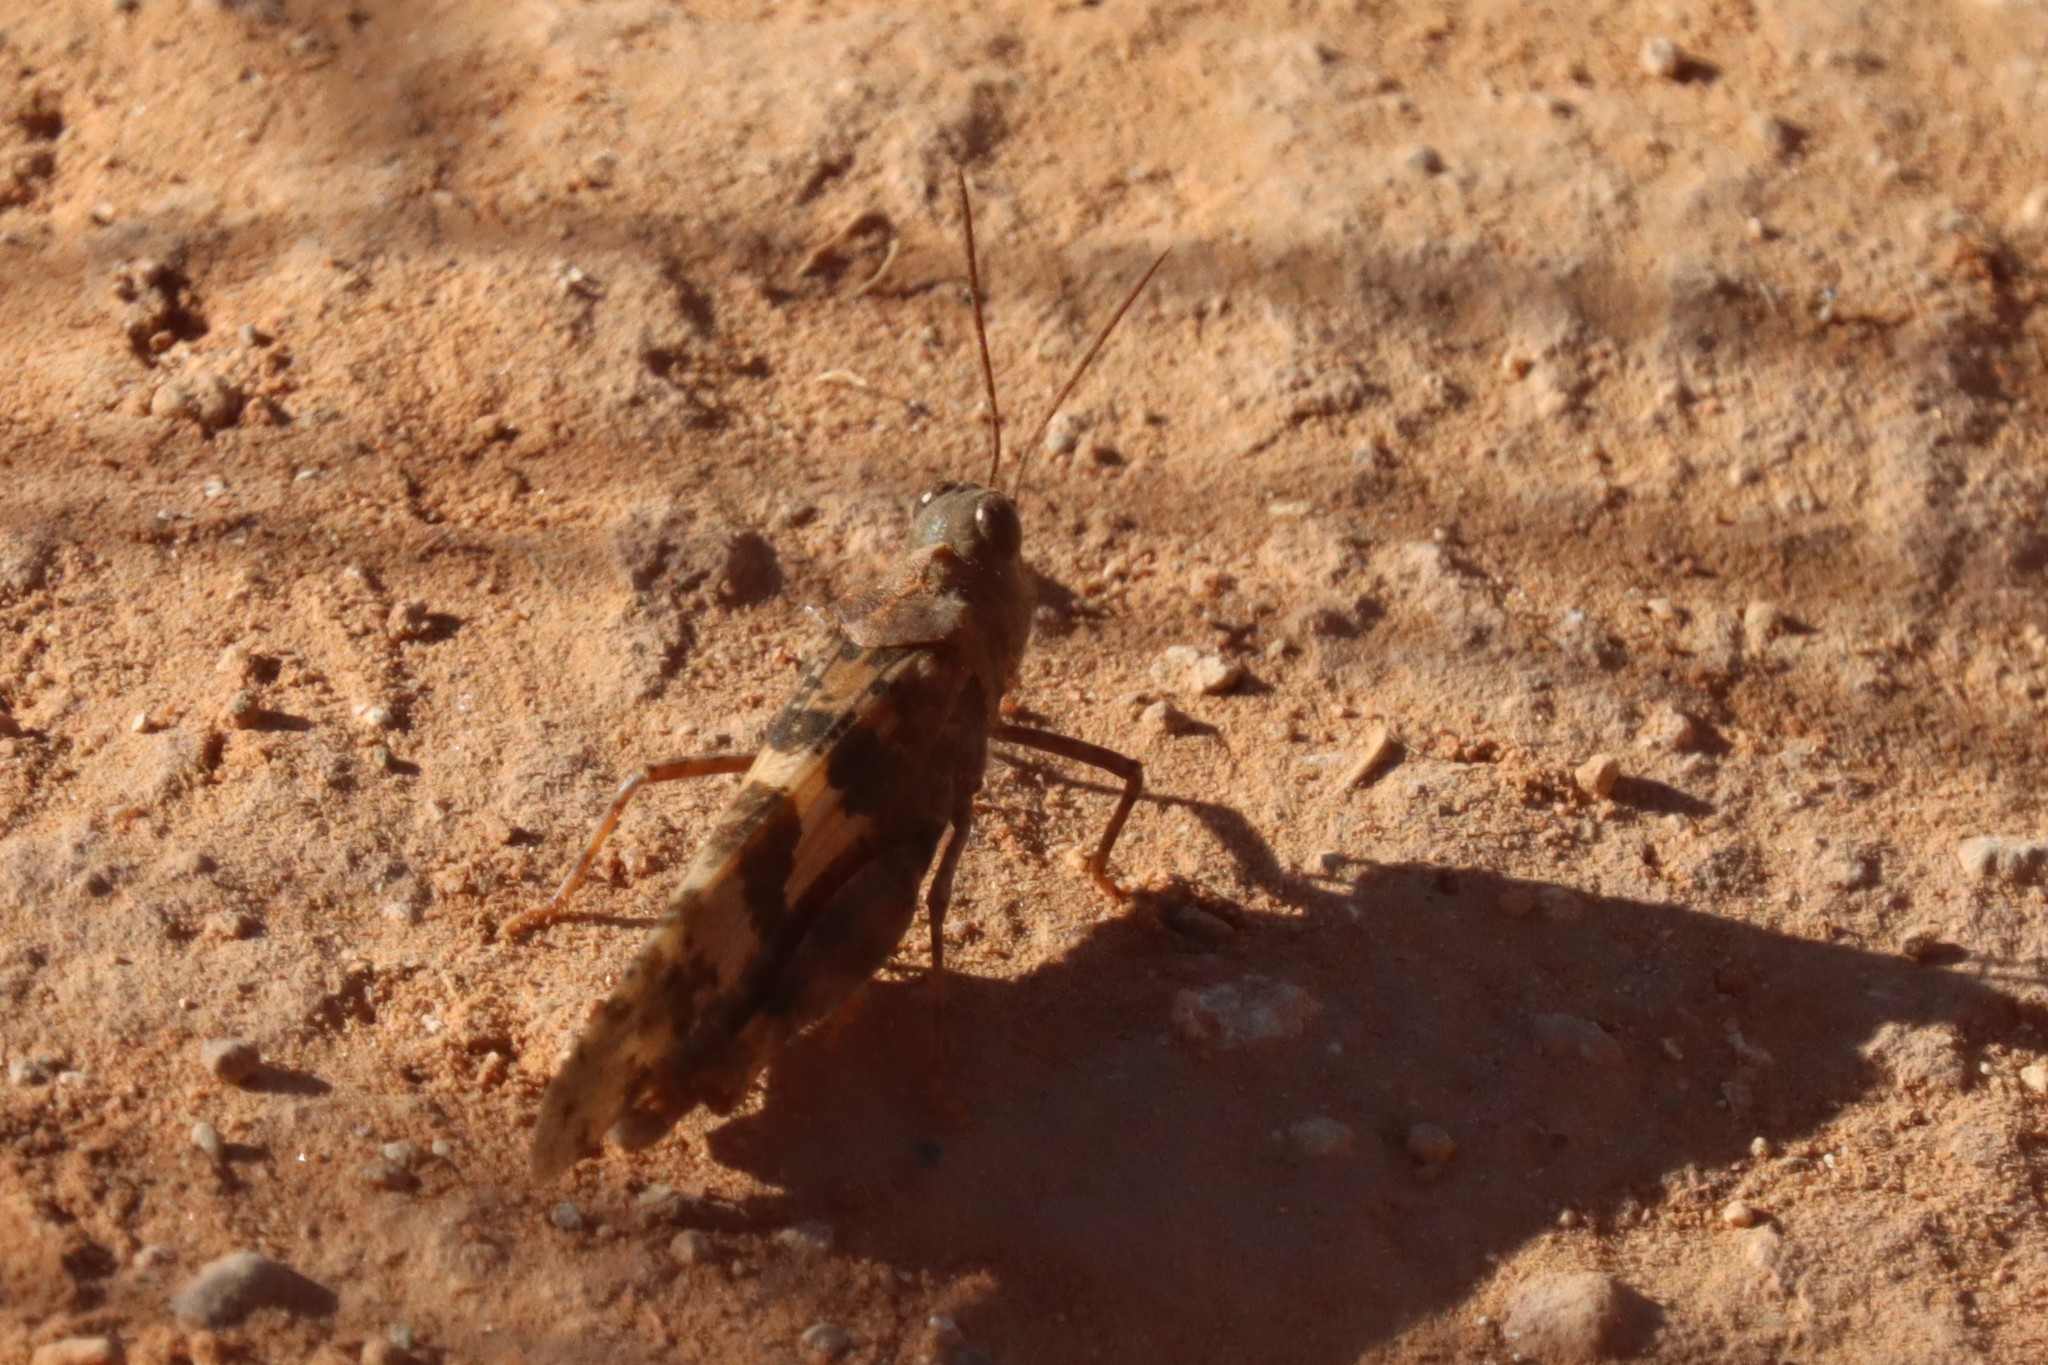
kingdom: Animalia
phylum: Arthropoda
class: Insecta
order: Orthoptera
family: Acrididae
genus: Trimerotropis
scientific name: Trimerotropis pallidipennis
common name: Pallid-winged grasshopper
